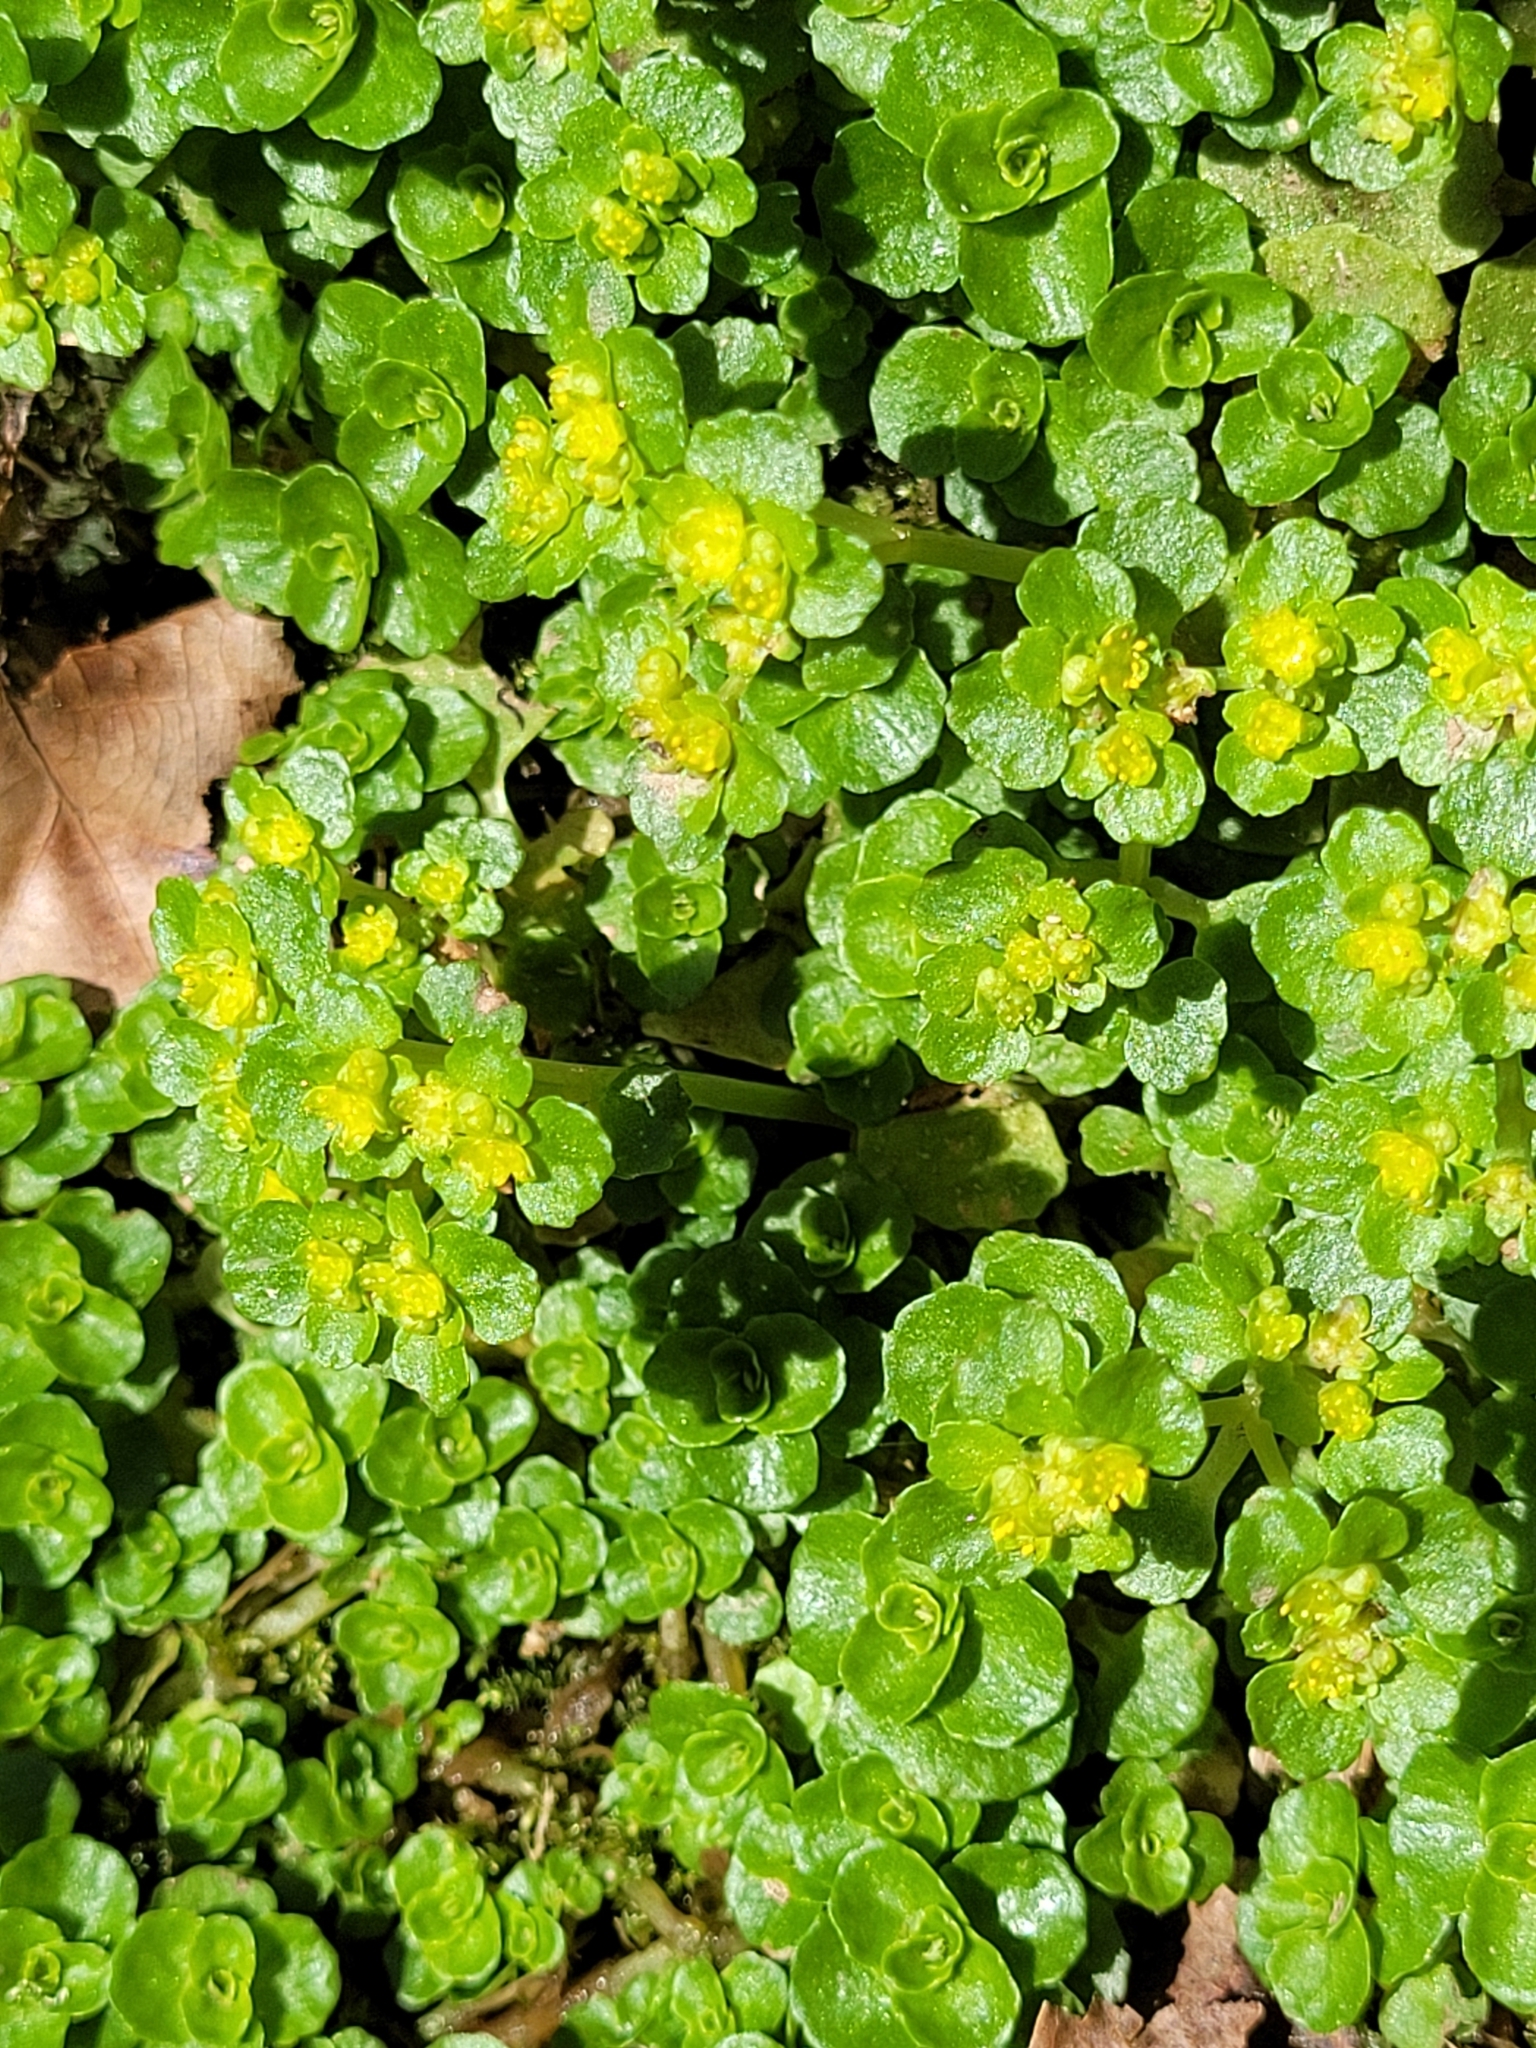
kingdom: Plantae
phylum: Tracheophyta
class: Magnoliopsida
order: Saxifragales
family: Saxifragaceae
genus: Chrysosplenium
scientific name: Chrysosplenium oppositifolium
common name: Opposite-leaved golden-saxifrage
